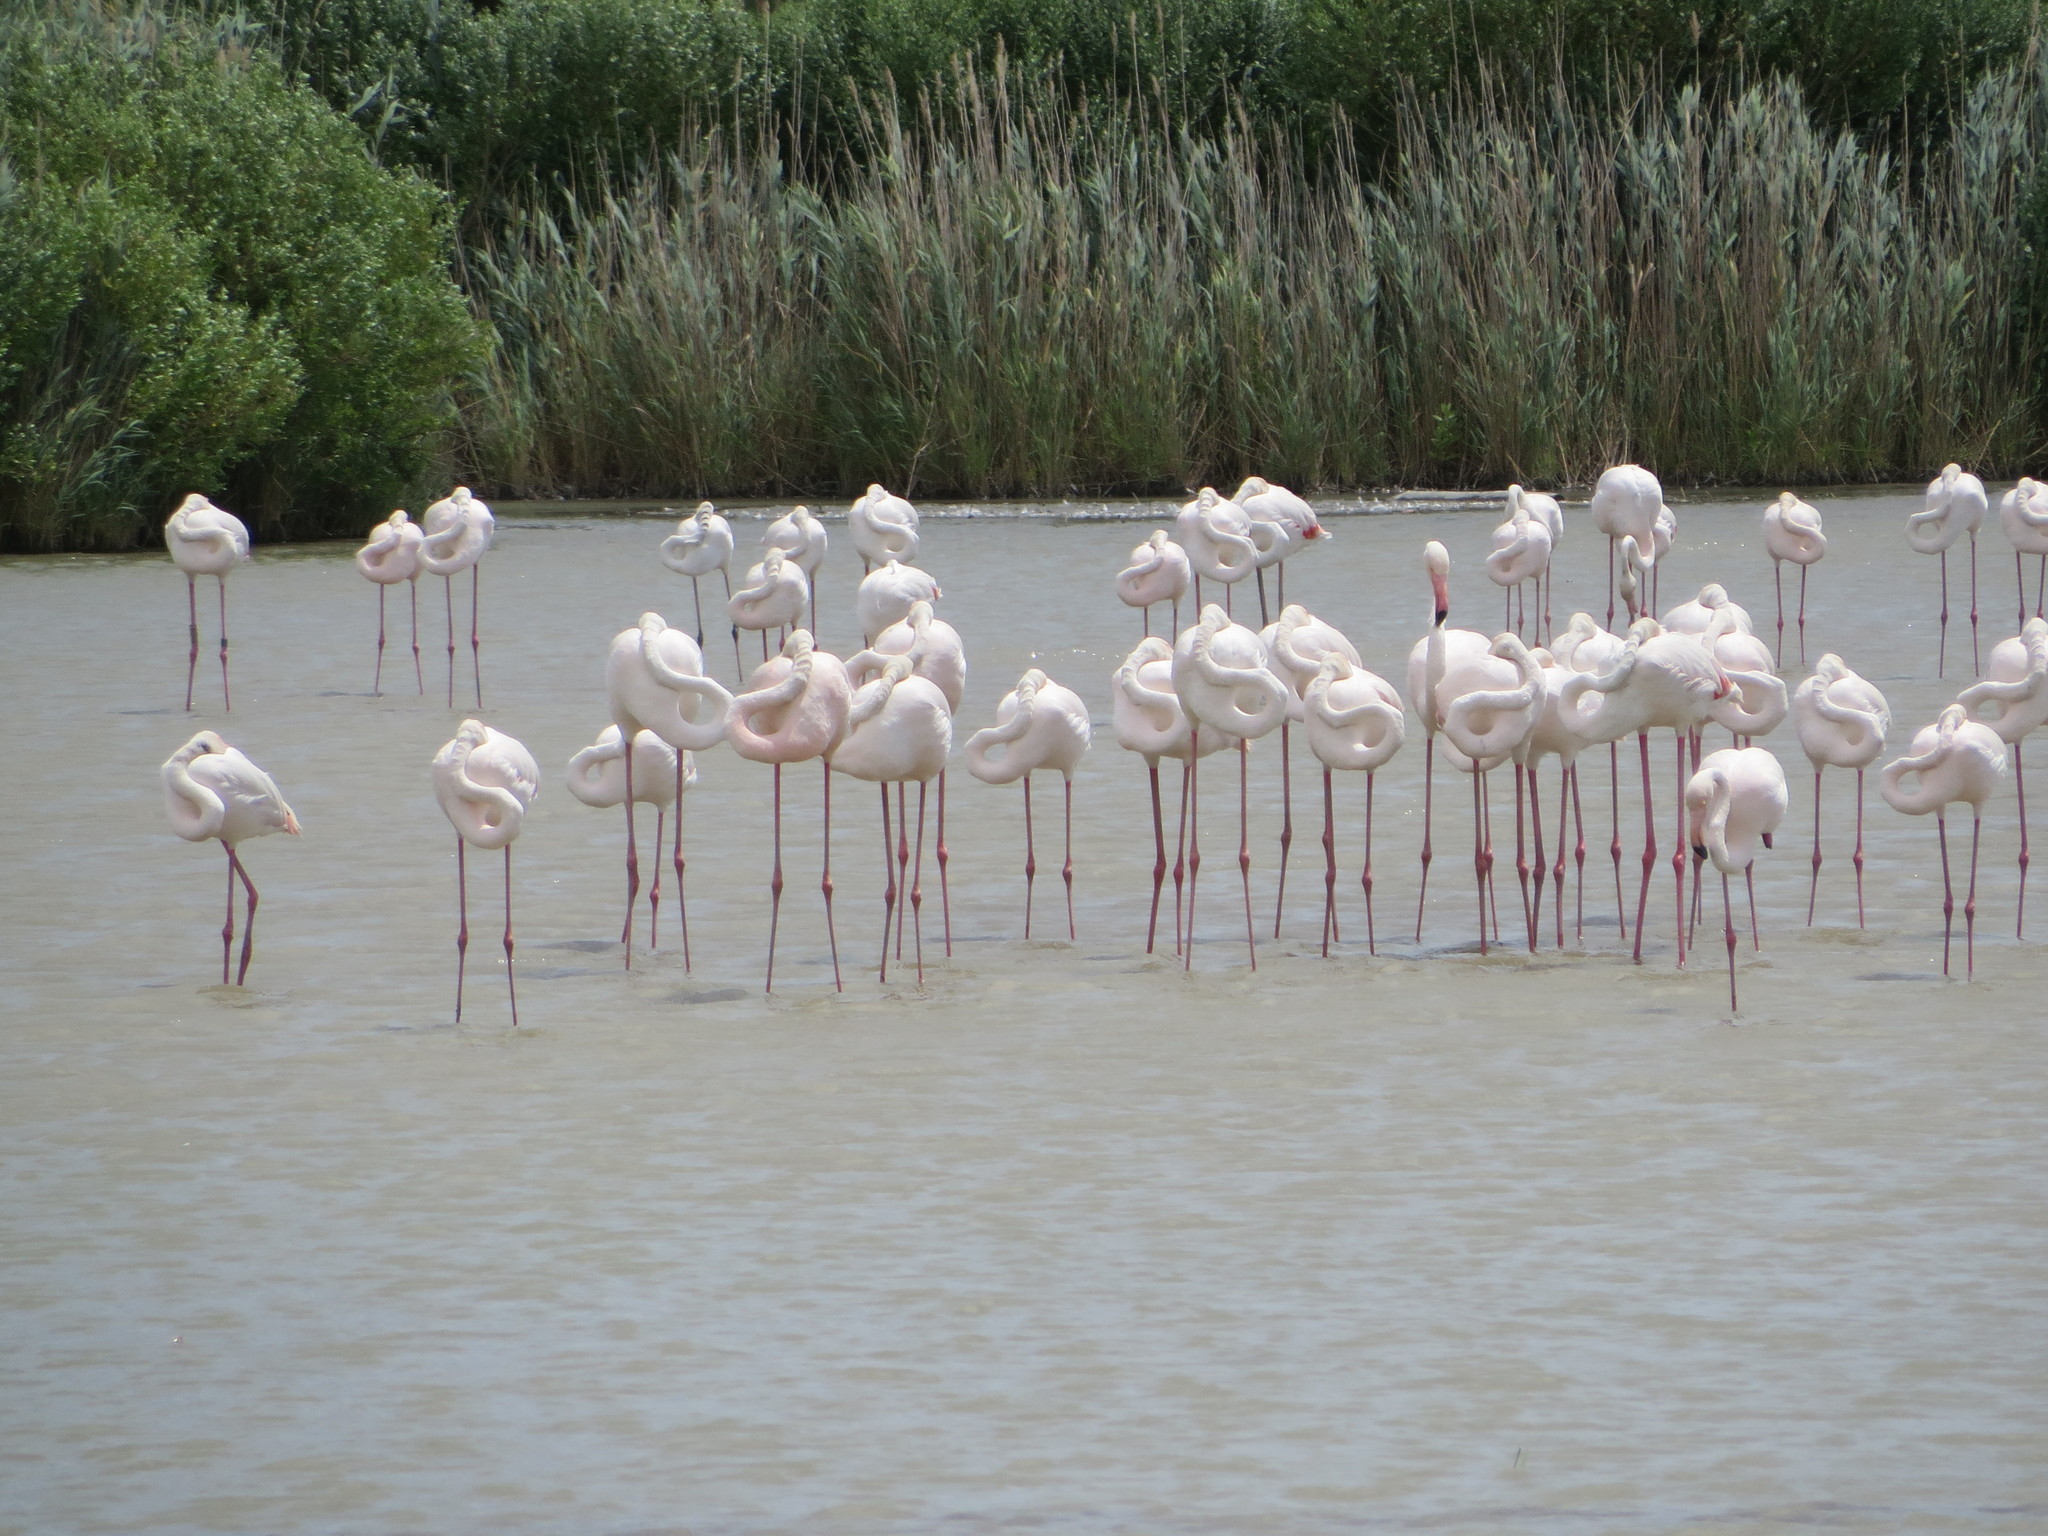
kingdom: Animalia
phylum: Chordata
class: Aves
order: Phoenicopteriformes
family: Phoenicopteridae
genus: Phoenicopterus
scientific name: Phoenicopterus roseus
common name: Greater flamingo
